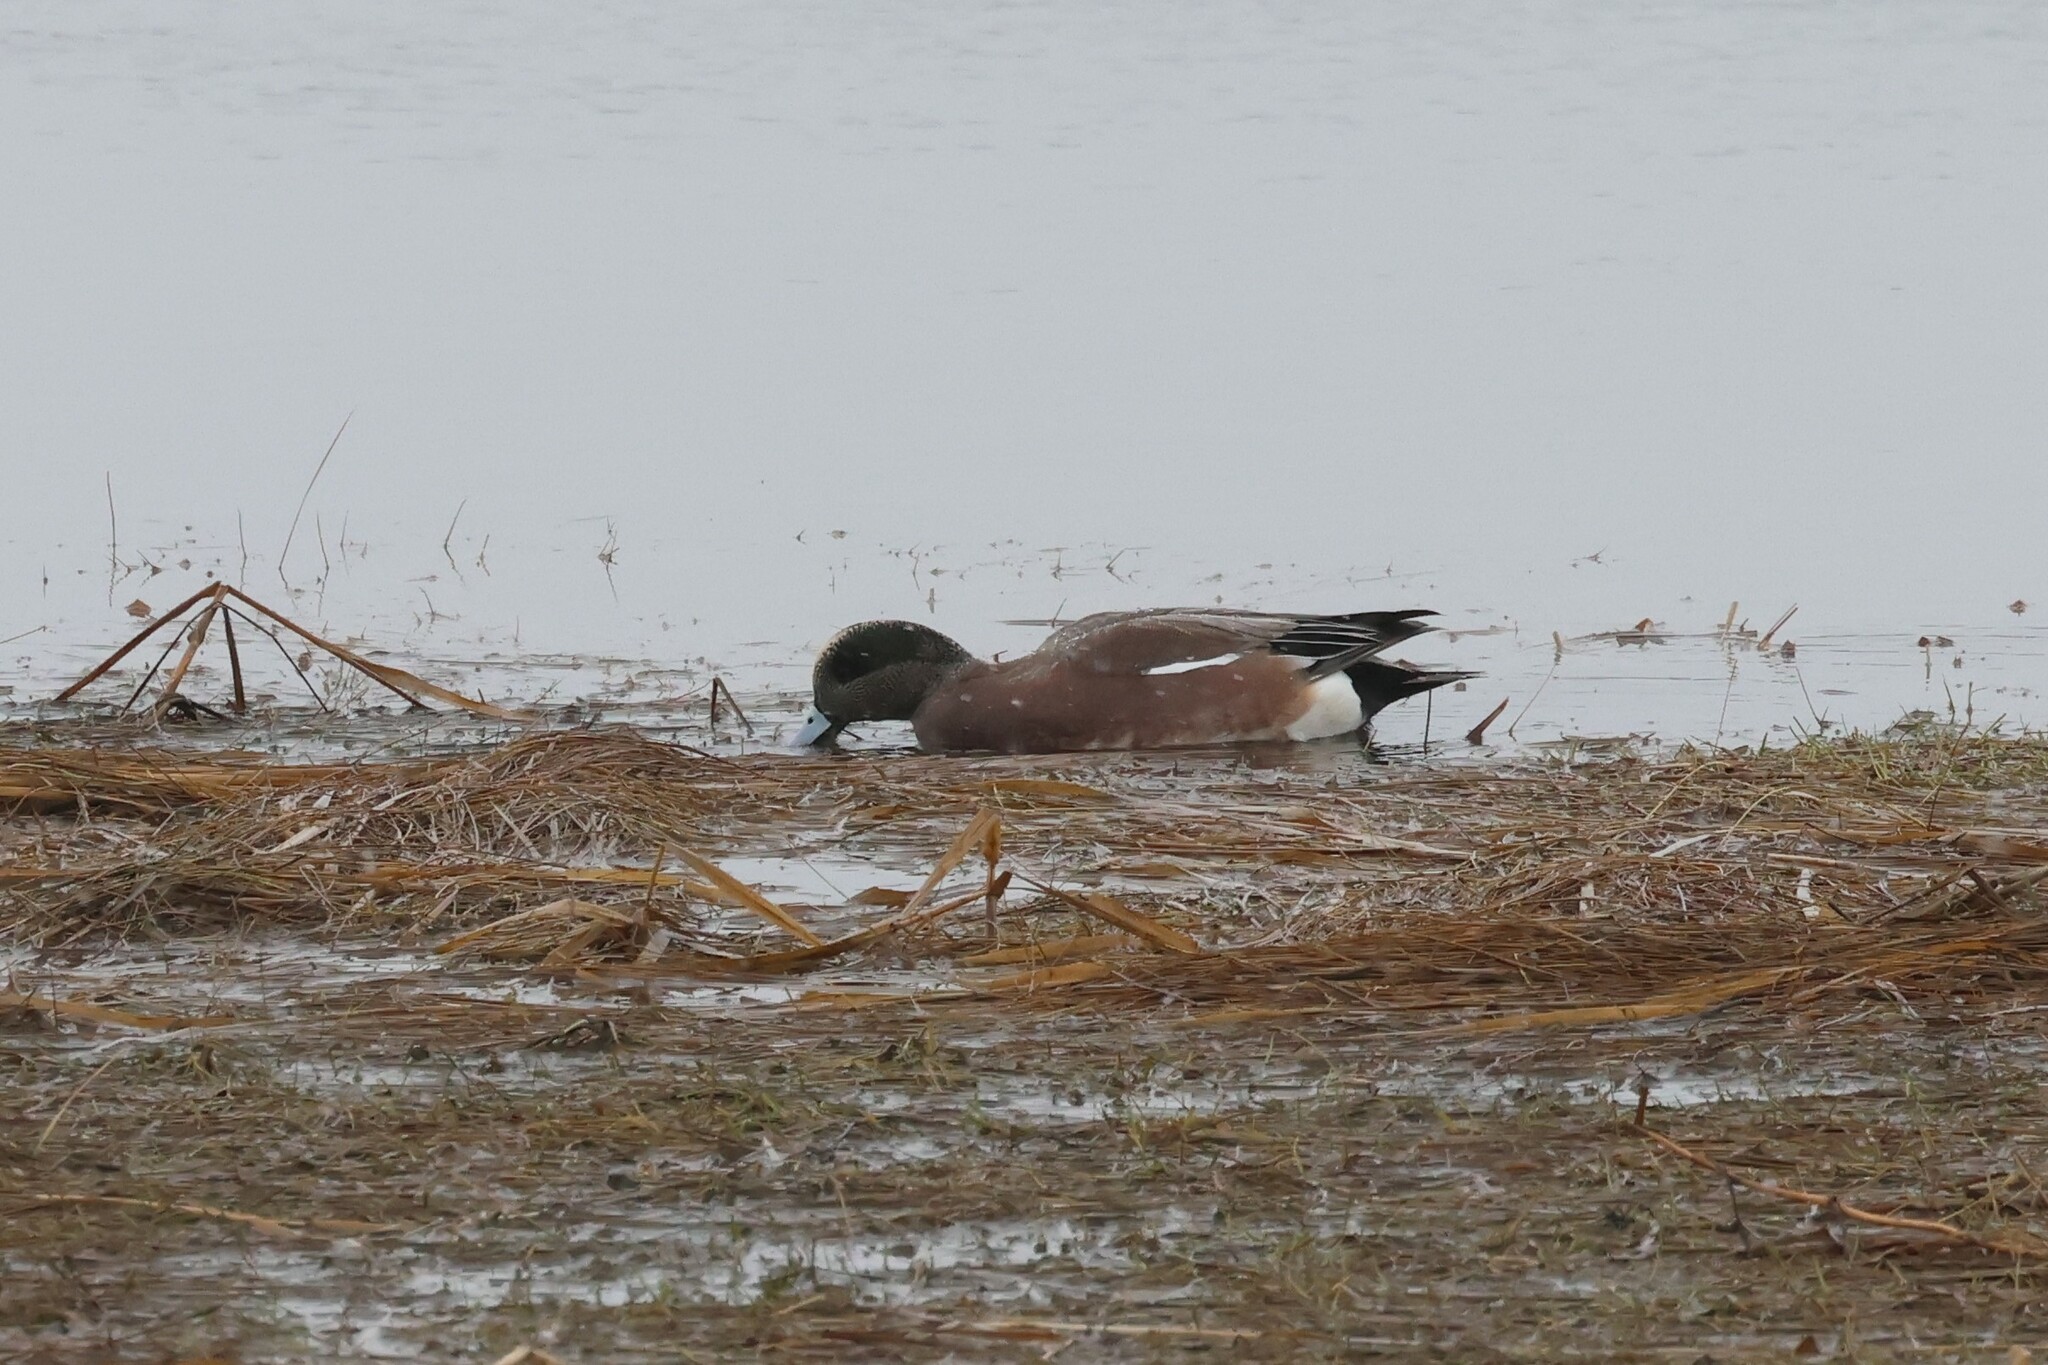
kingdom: Animalia
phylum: Chordata
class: Aves
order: Anseriformes
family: Anatidae
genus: Mareca
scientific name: Mareca americana
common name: American wigeon
